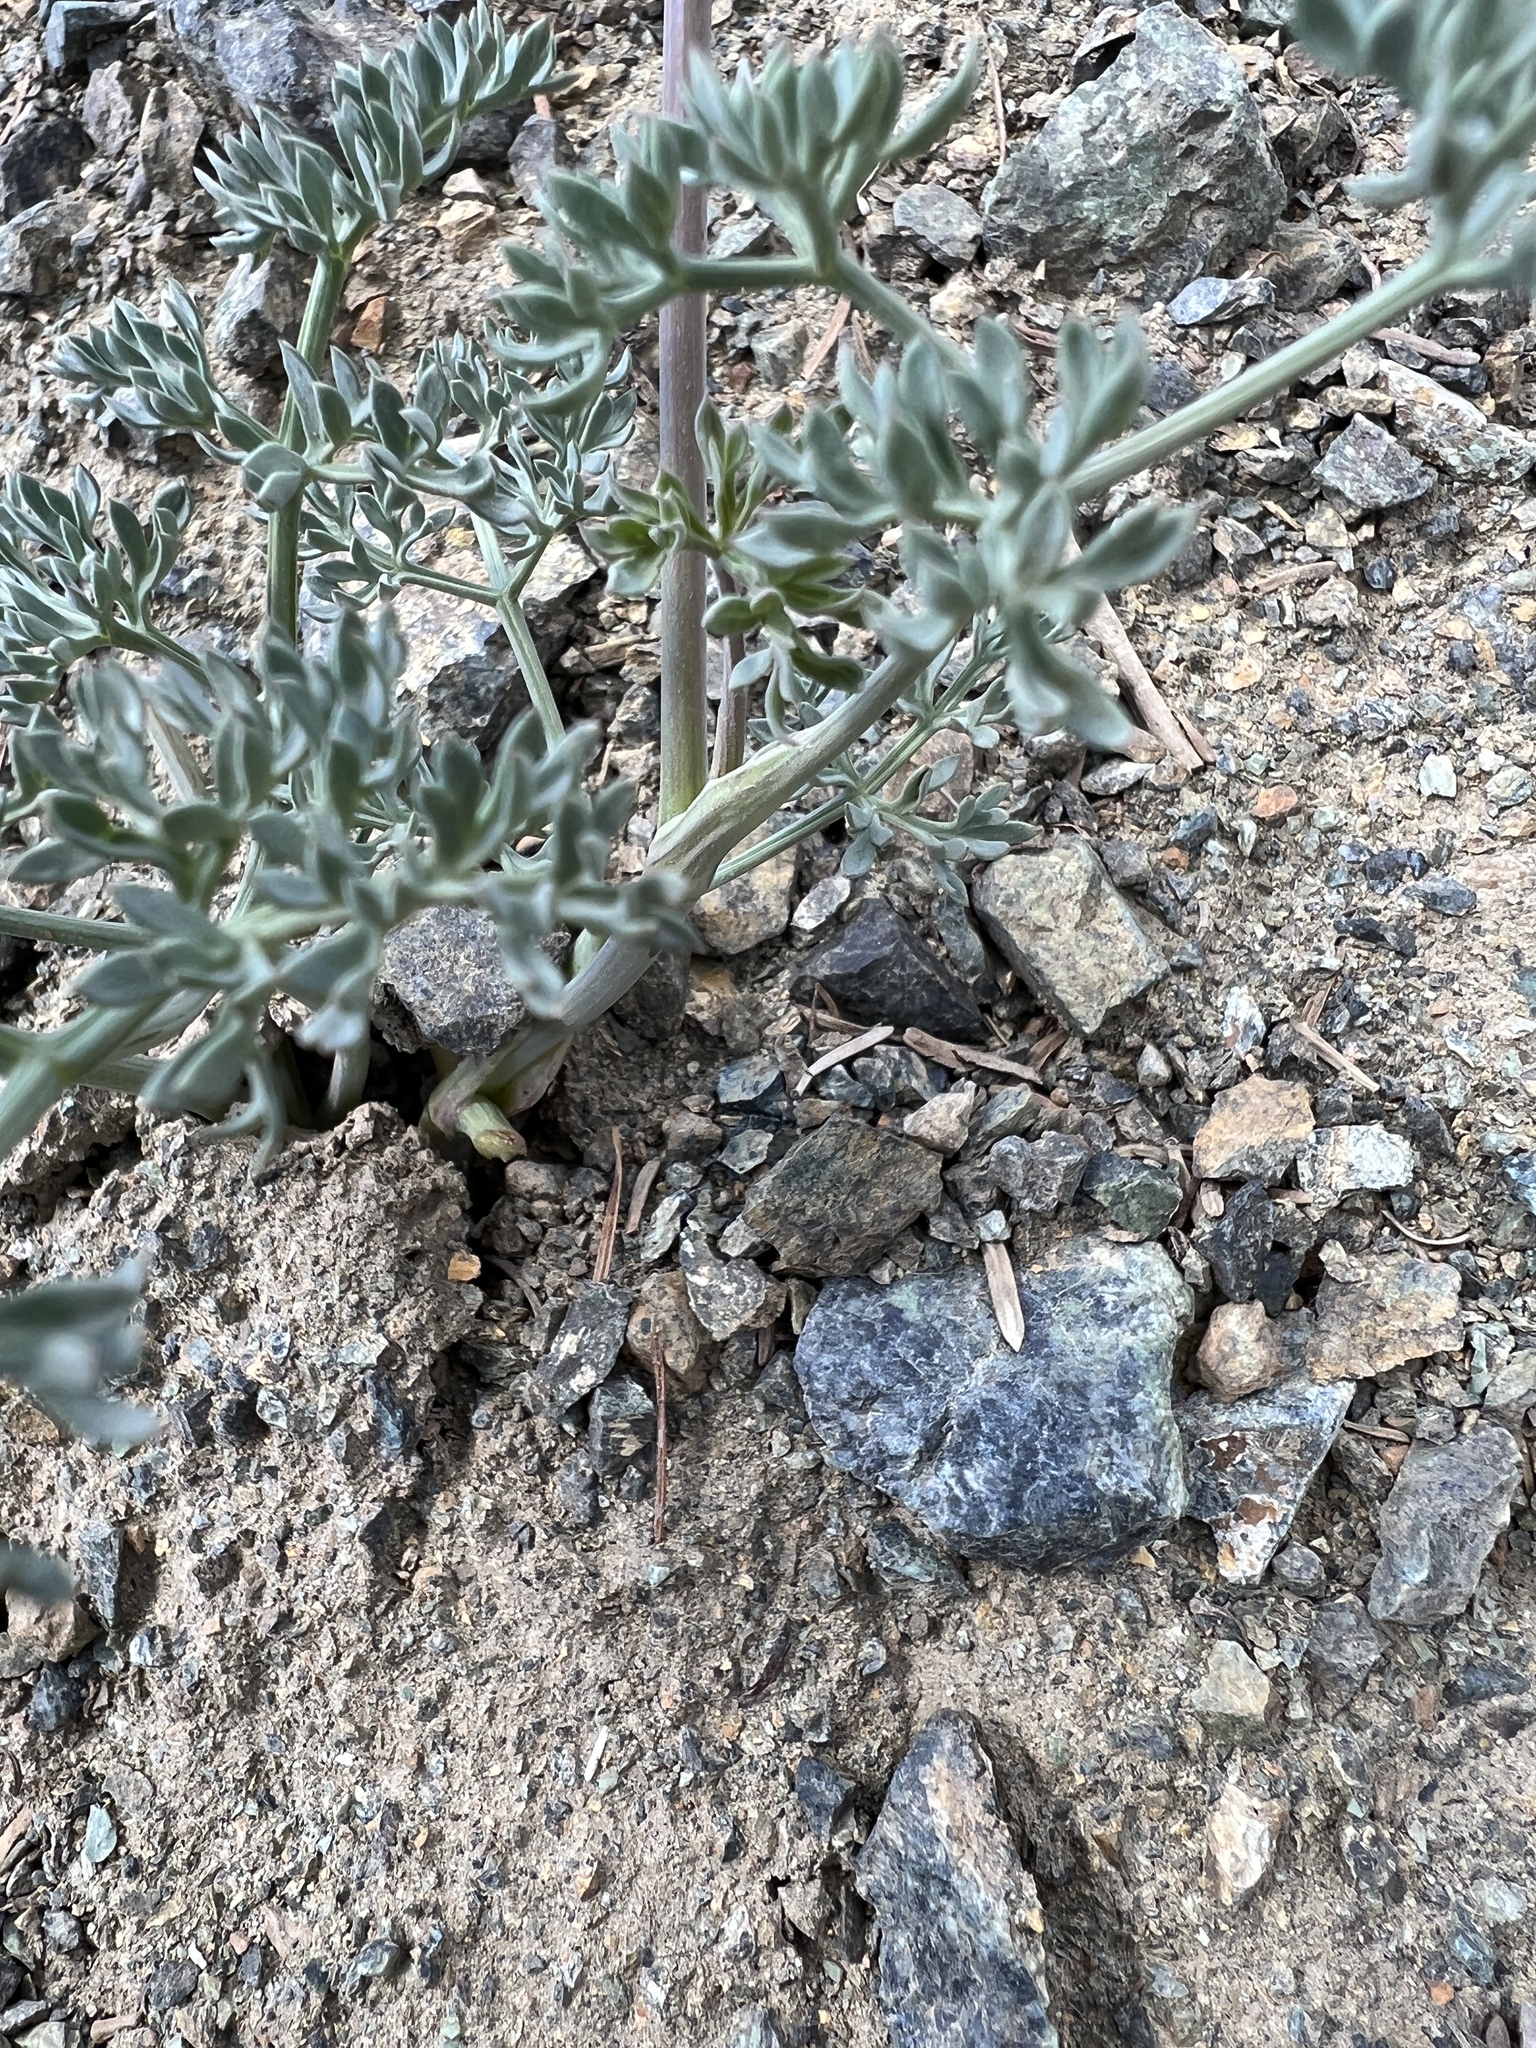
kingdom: Plantae
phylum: Tracheophyta
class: Magnoliopsida
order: Apiales
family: Apiaceae
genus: Lomatium
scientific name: Lomatium cuspidatum
